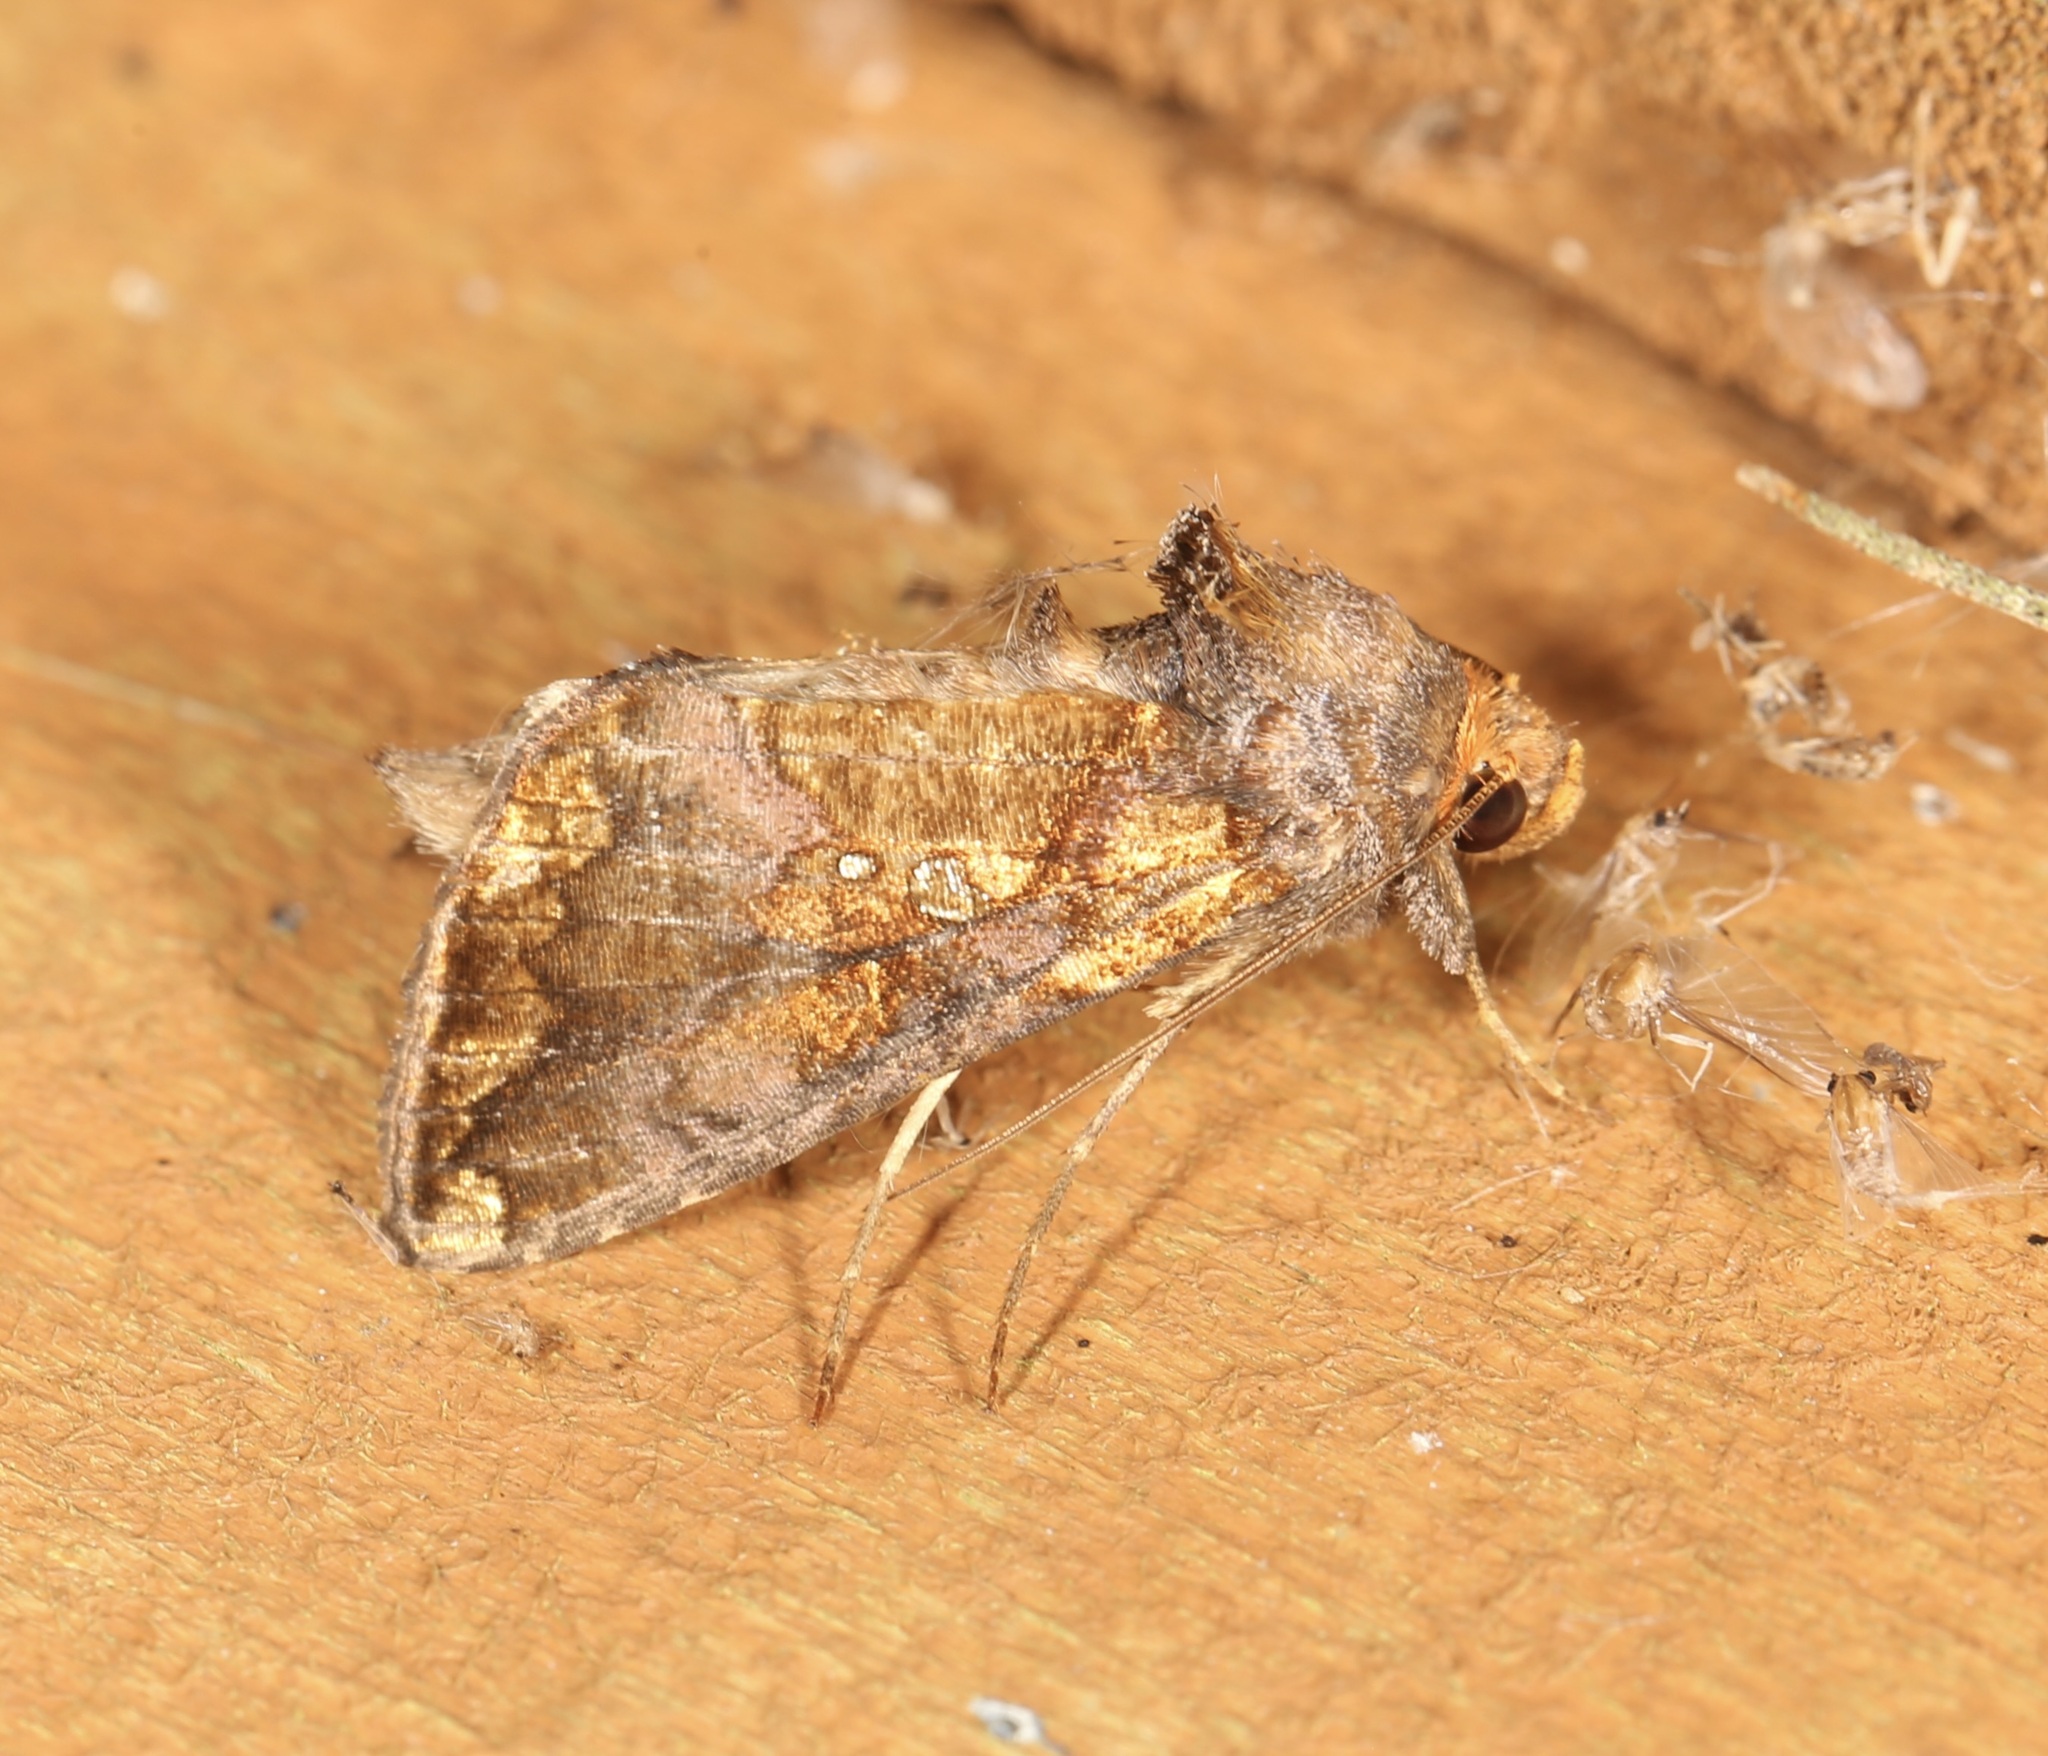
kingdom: Animalia
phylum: Arthropoda
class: Insecta
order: Lepidoptera
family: Noctuidae
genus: Argyrogramma
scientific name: Argyrogramma verruca
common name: Golden looper moth
